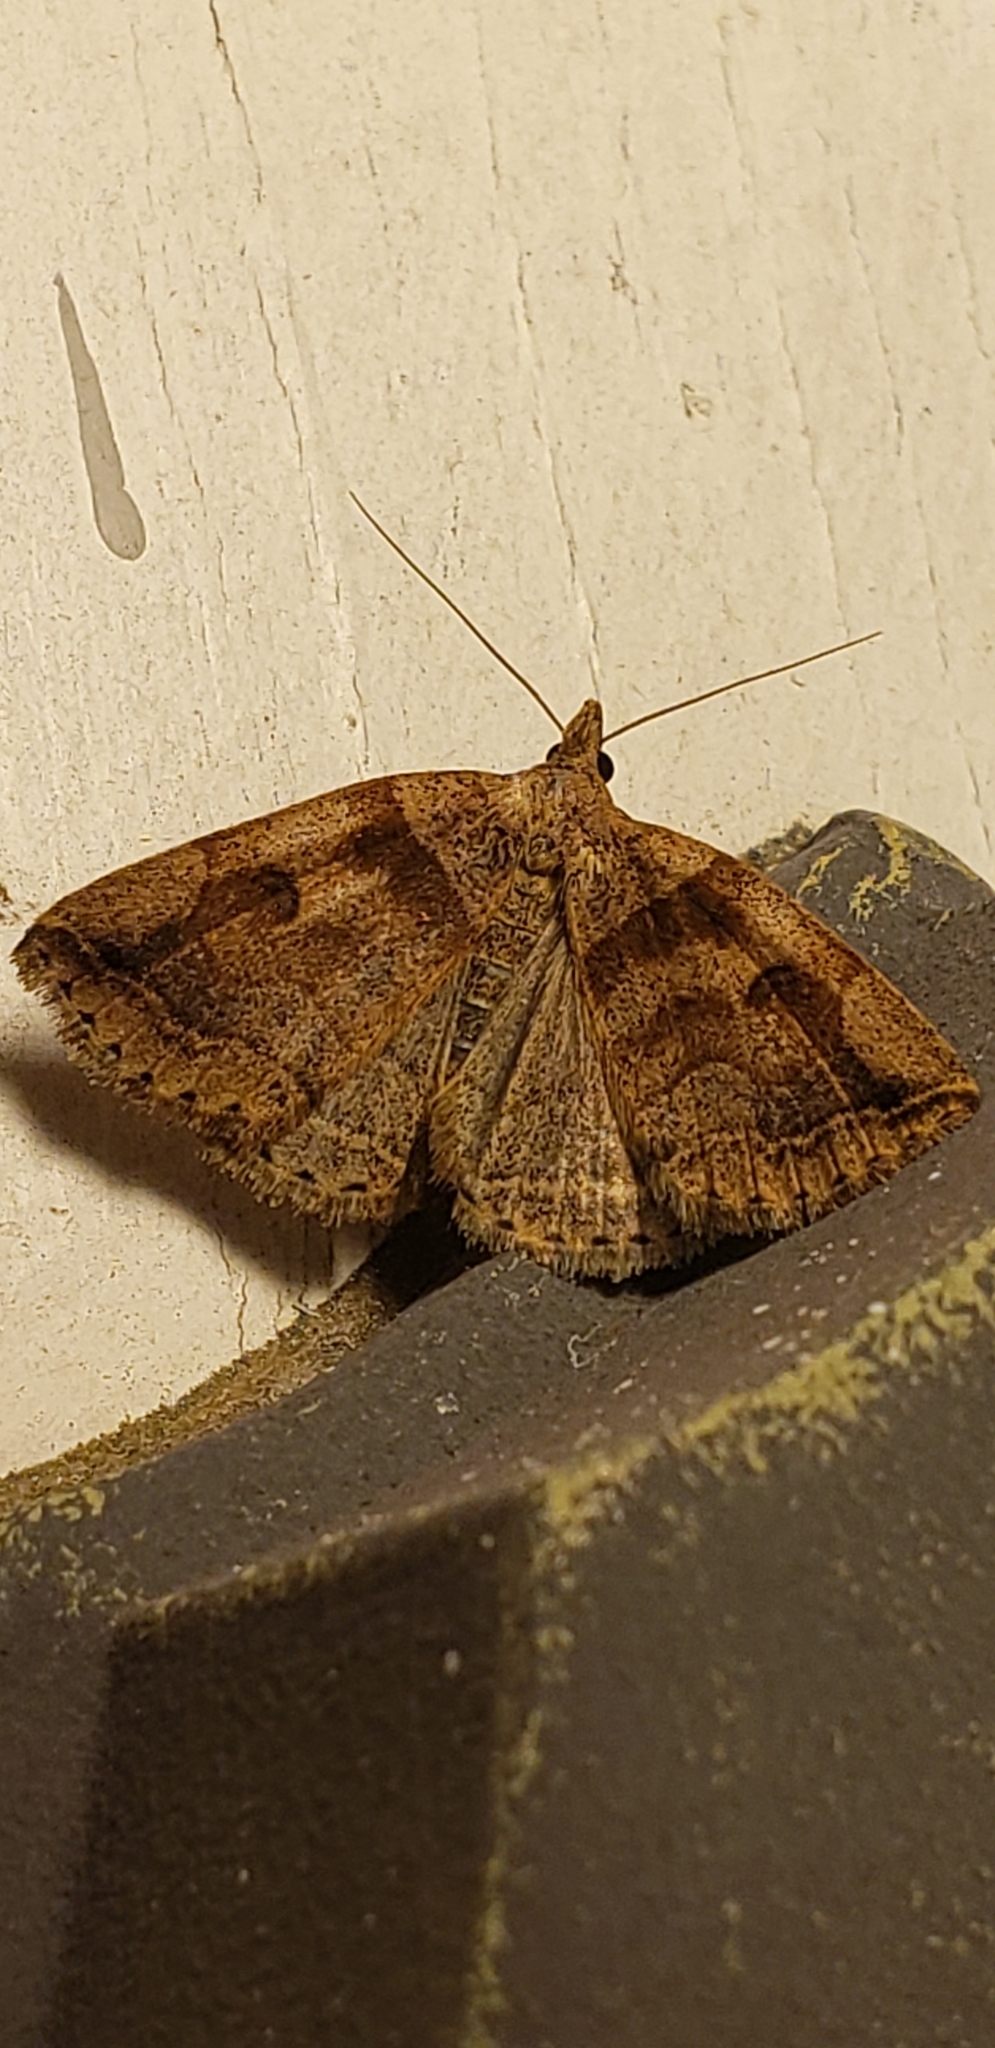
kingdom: Animalia
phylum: Arthropoda
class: Insecta
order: Lepidoptera
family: Erebidae
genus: Zanclognatha
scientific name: Zanclognatha laevigata
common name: Variable fan-foot
